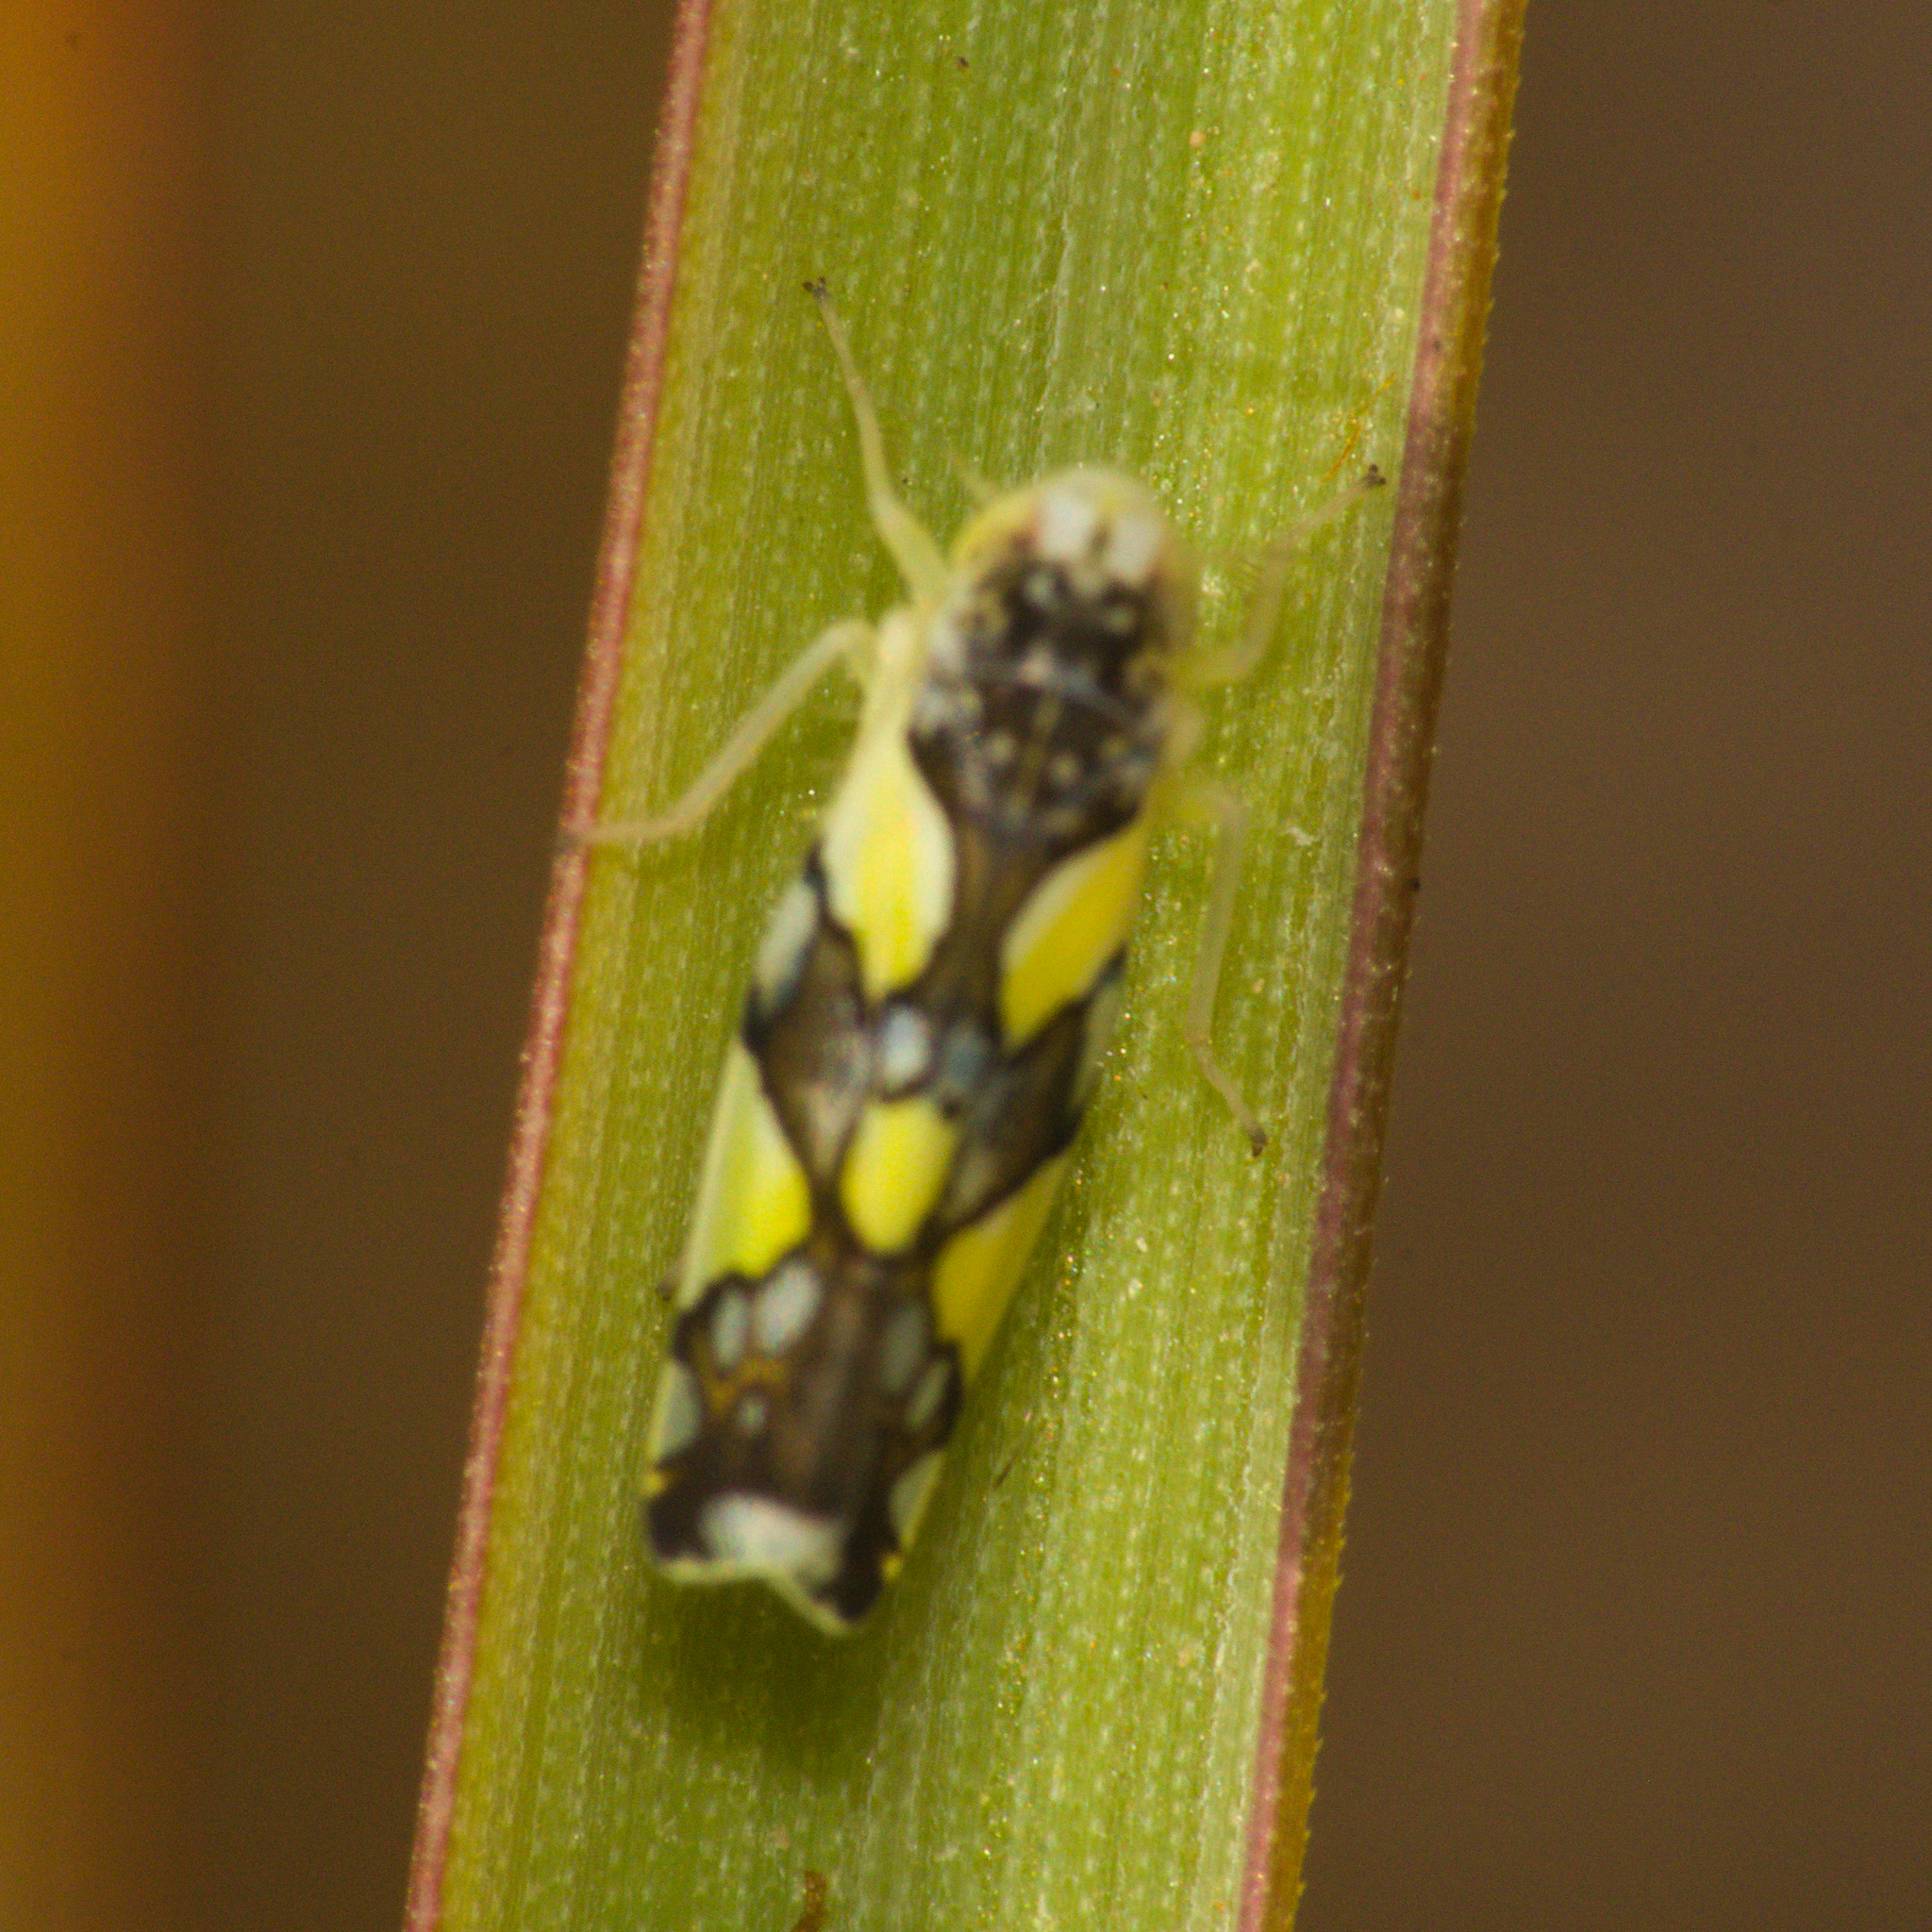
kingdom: Animalia
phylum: Arthropoda
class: Insecta
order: Hemiptera
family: Cicadellidae
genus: Protalebrella
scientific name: Protalebrella brasiliensis
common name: Brasilian leafhopper
